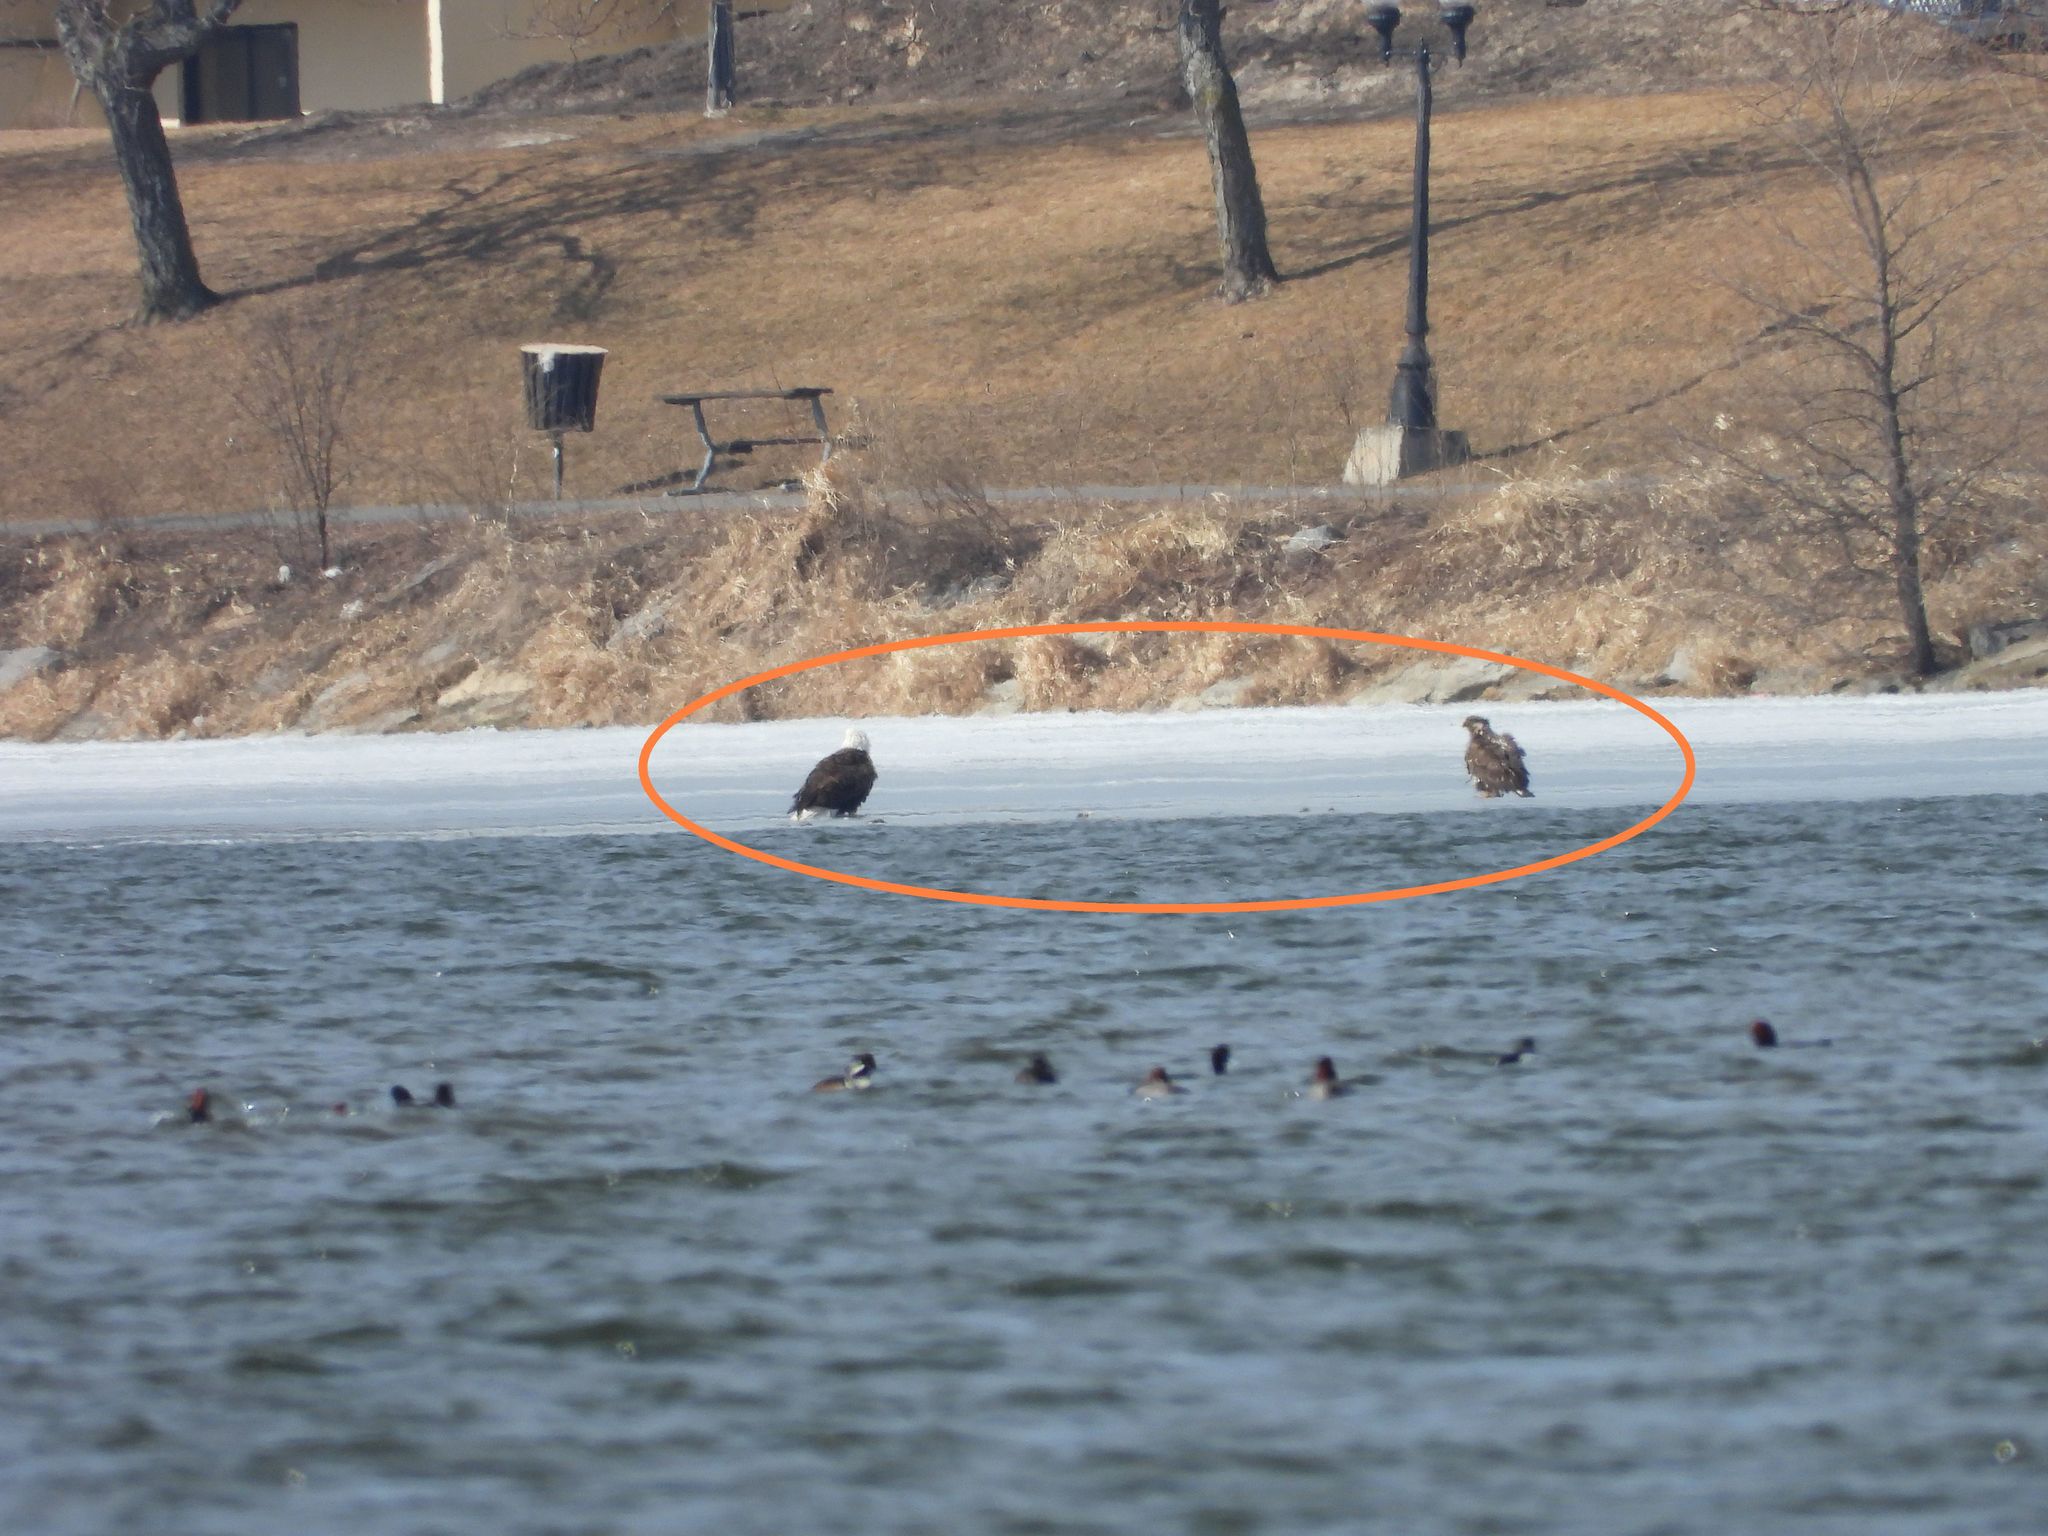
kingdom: Animalia
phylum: Chordata
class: Aves
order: Accipitriformes
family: Accipitridae
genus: Haliaeetus
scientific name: Haliaeetus leucocephalus
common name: Bald eagle
